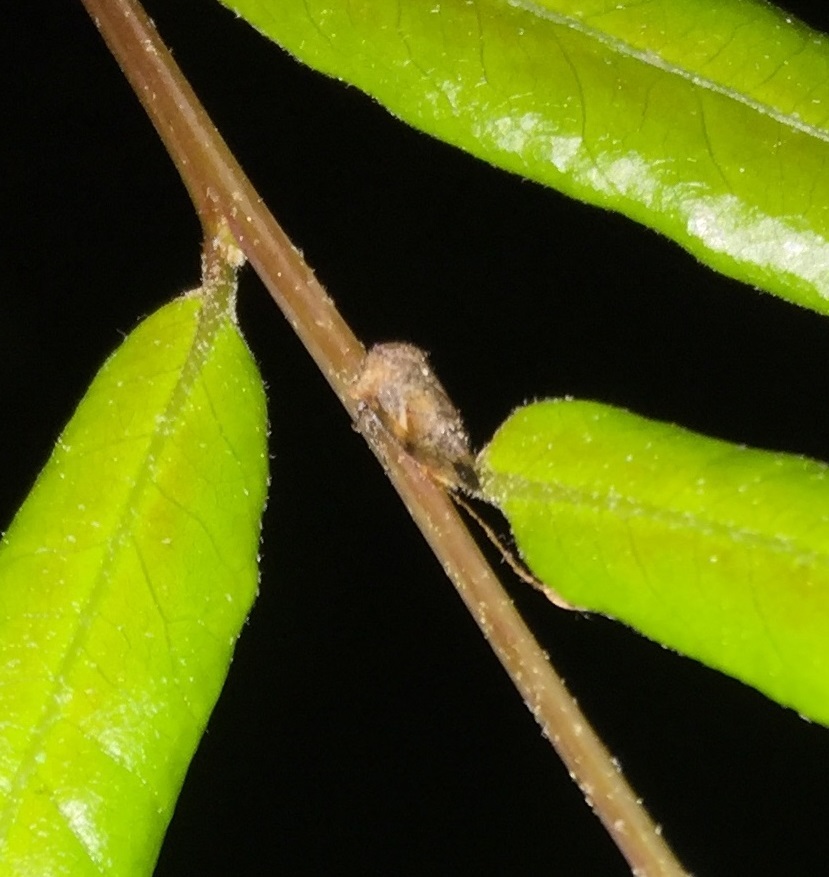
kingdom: Animalia
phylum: Arthropoda
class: Insecta
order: Hemiptera
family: Membracidae
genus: Ophiderma
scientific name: Ophiderma definita
